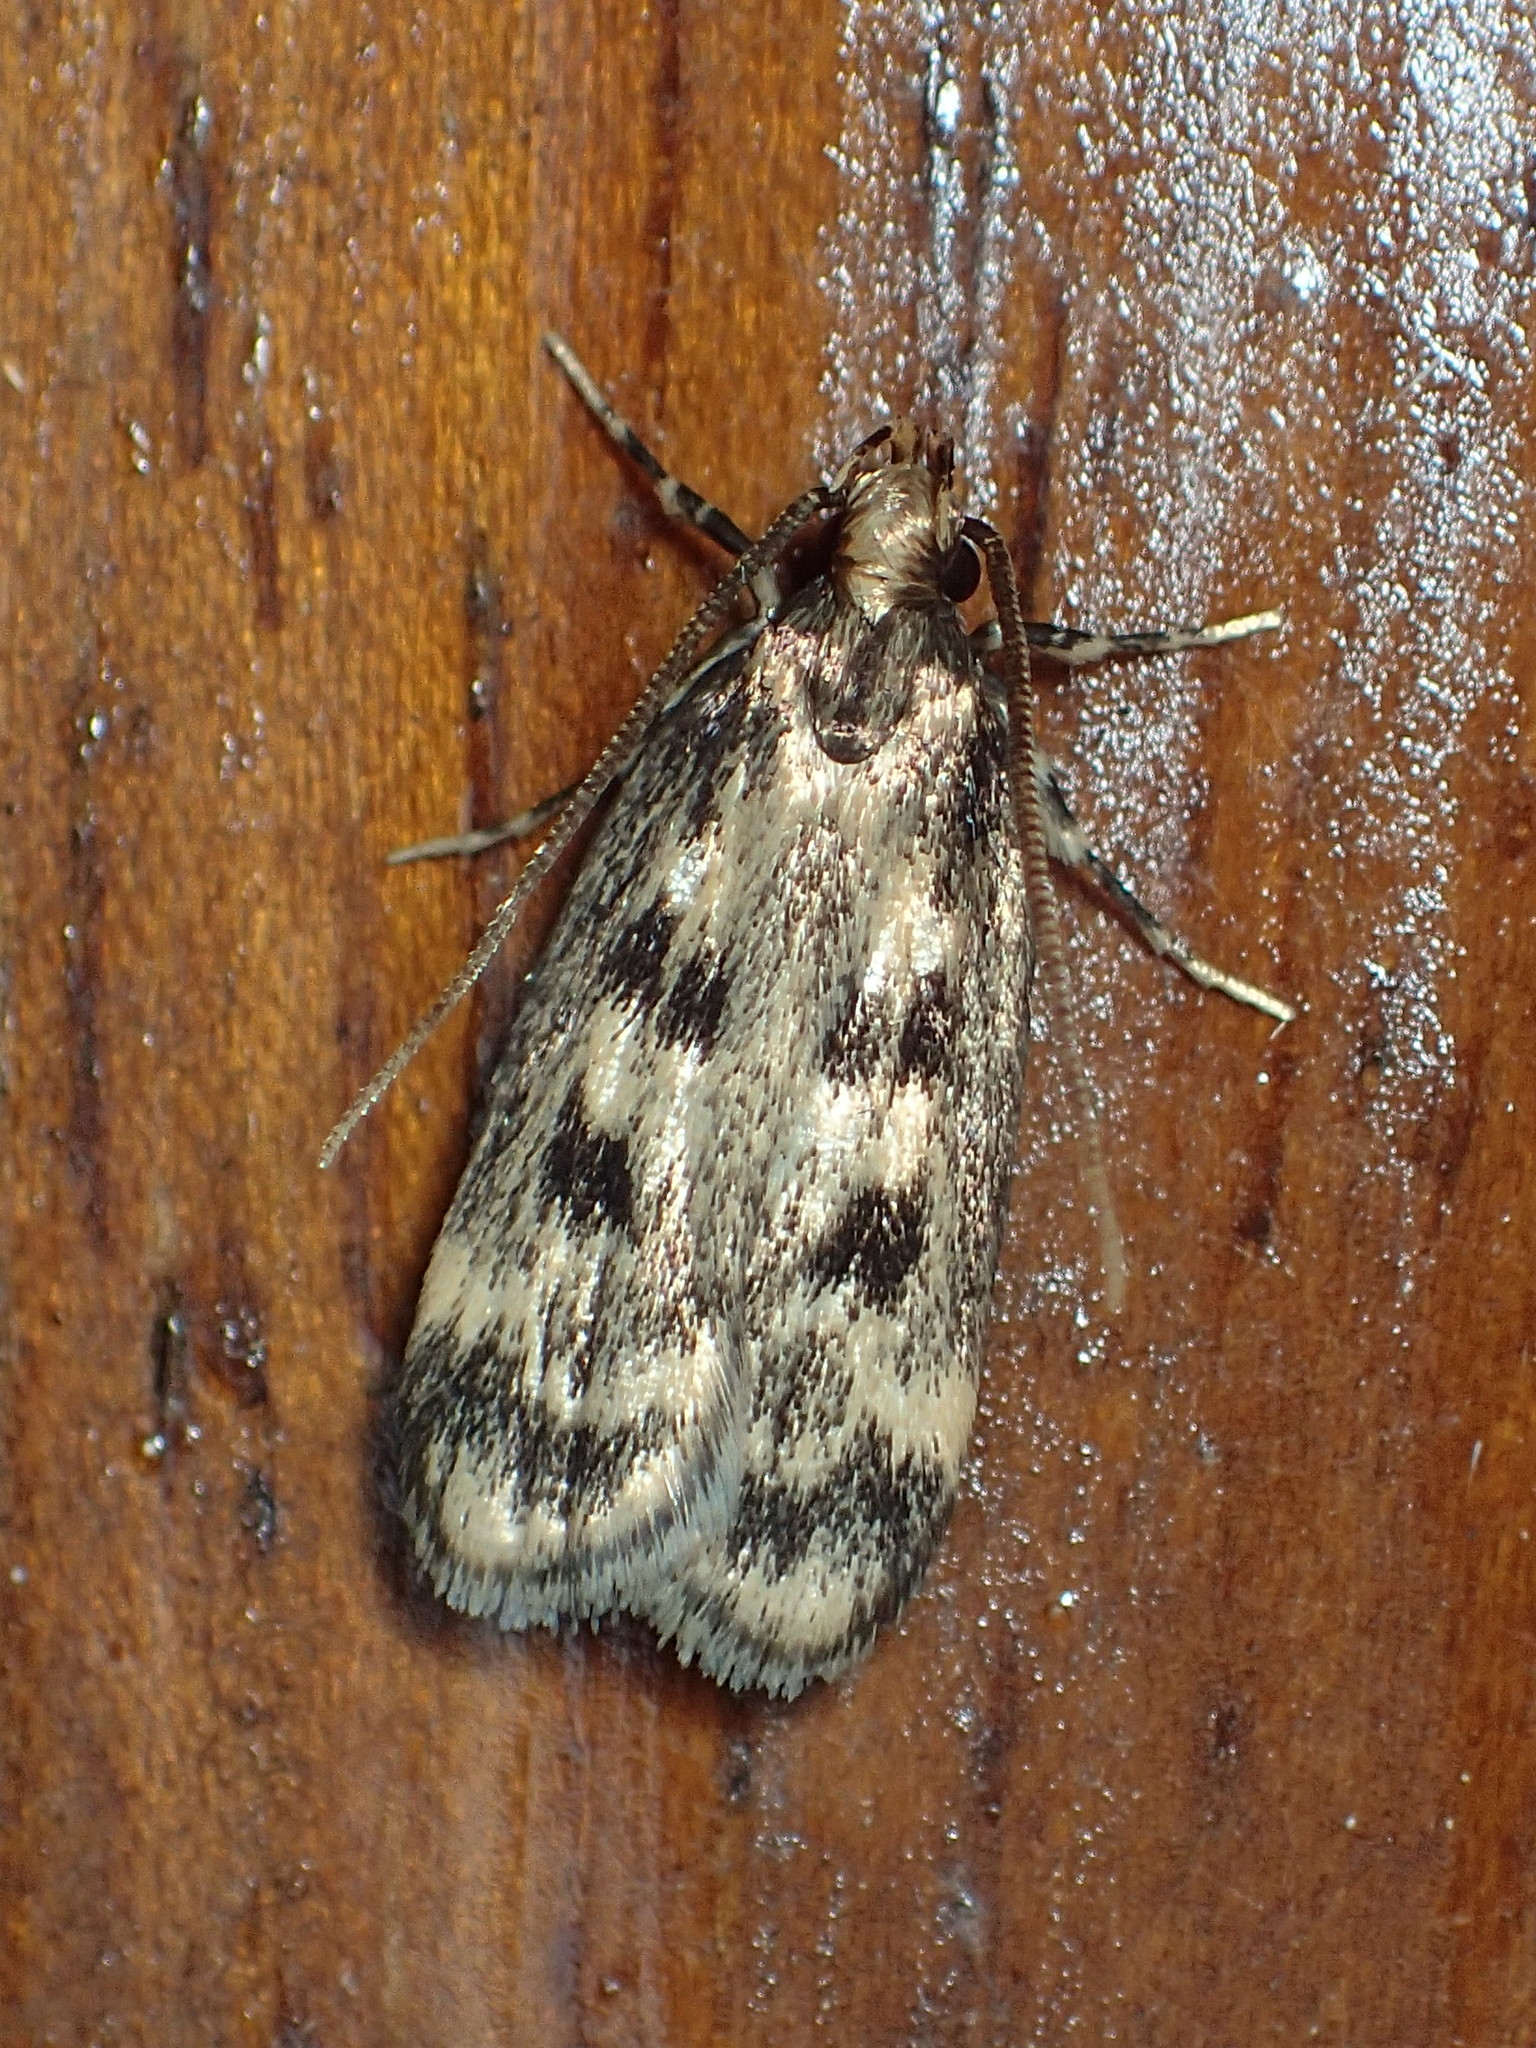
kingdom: Animalia
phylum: Arthropoda
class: Insecta
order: Lepidoptera
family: Lecithoceridae
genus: Martyringa
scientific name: Martyringa latipennis
